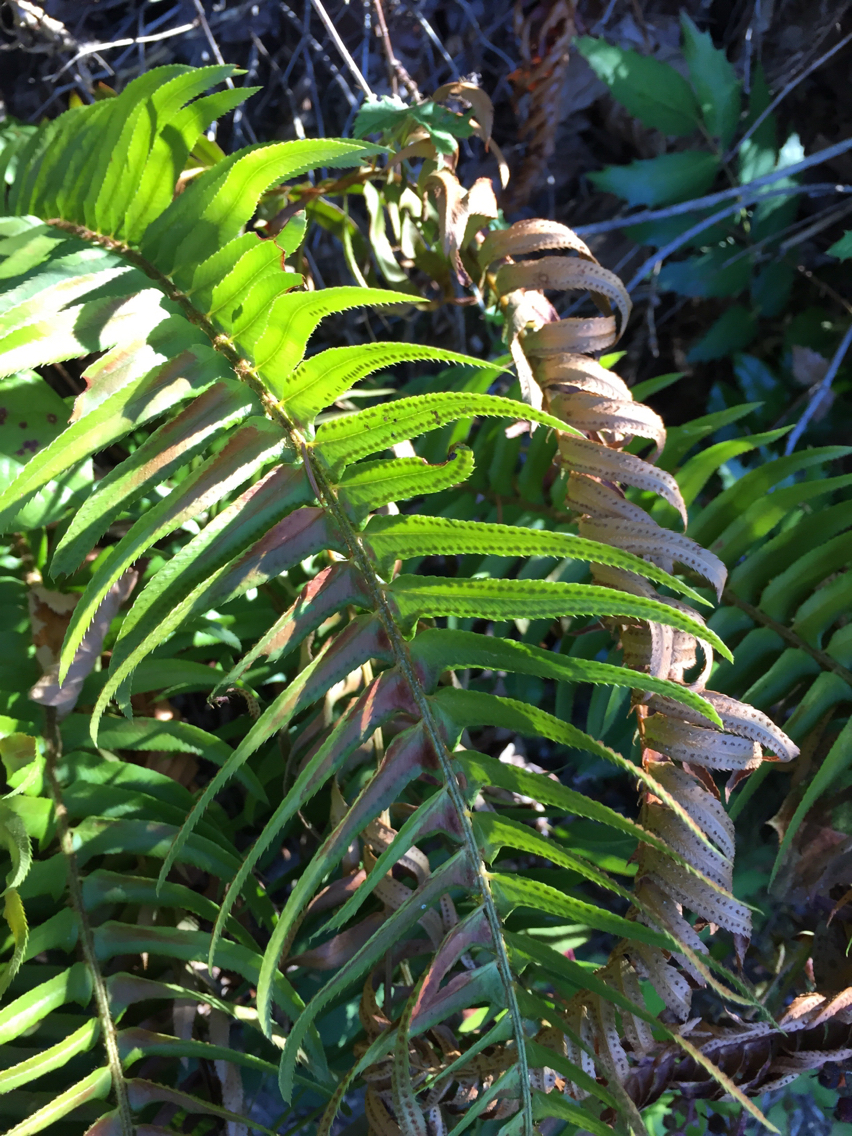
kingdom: Plantae
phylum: Tracheophyta
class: Polypodiopsida
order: Polypodiales
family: Dryopteridaceae
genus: Polystichum
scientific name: Polystichum munitum
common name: Western sword-fern
